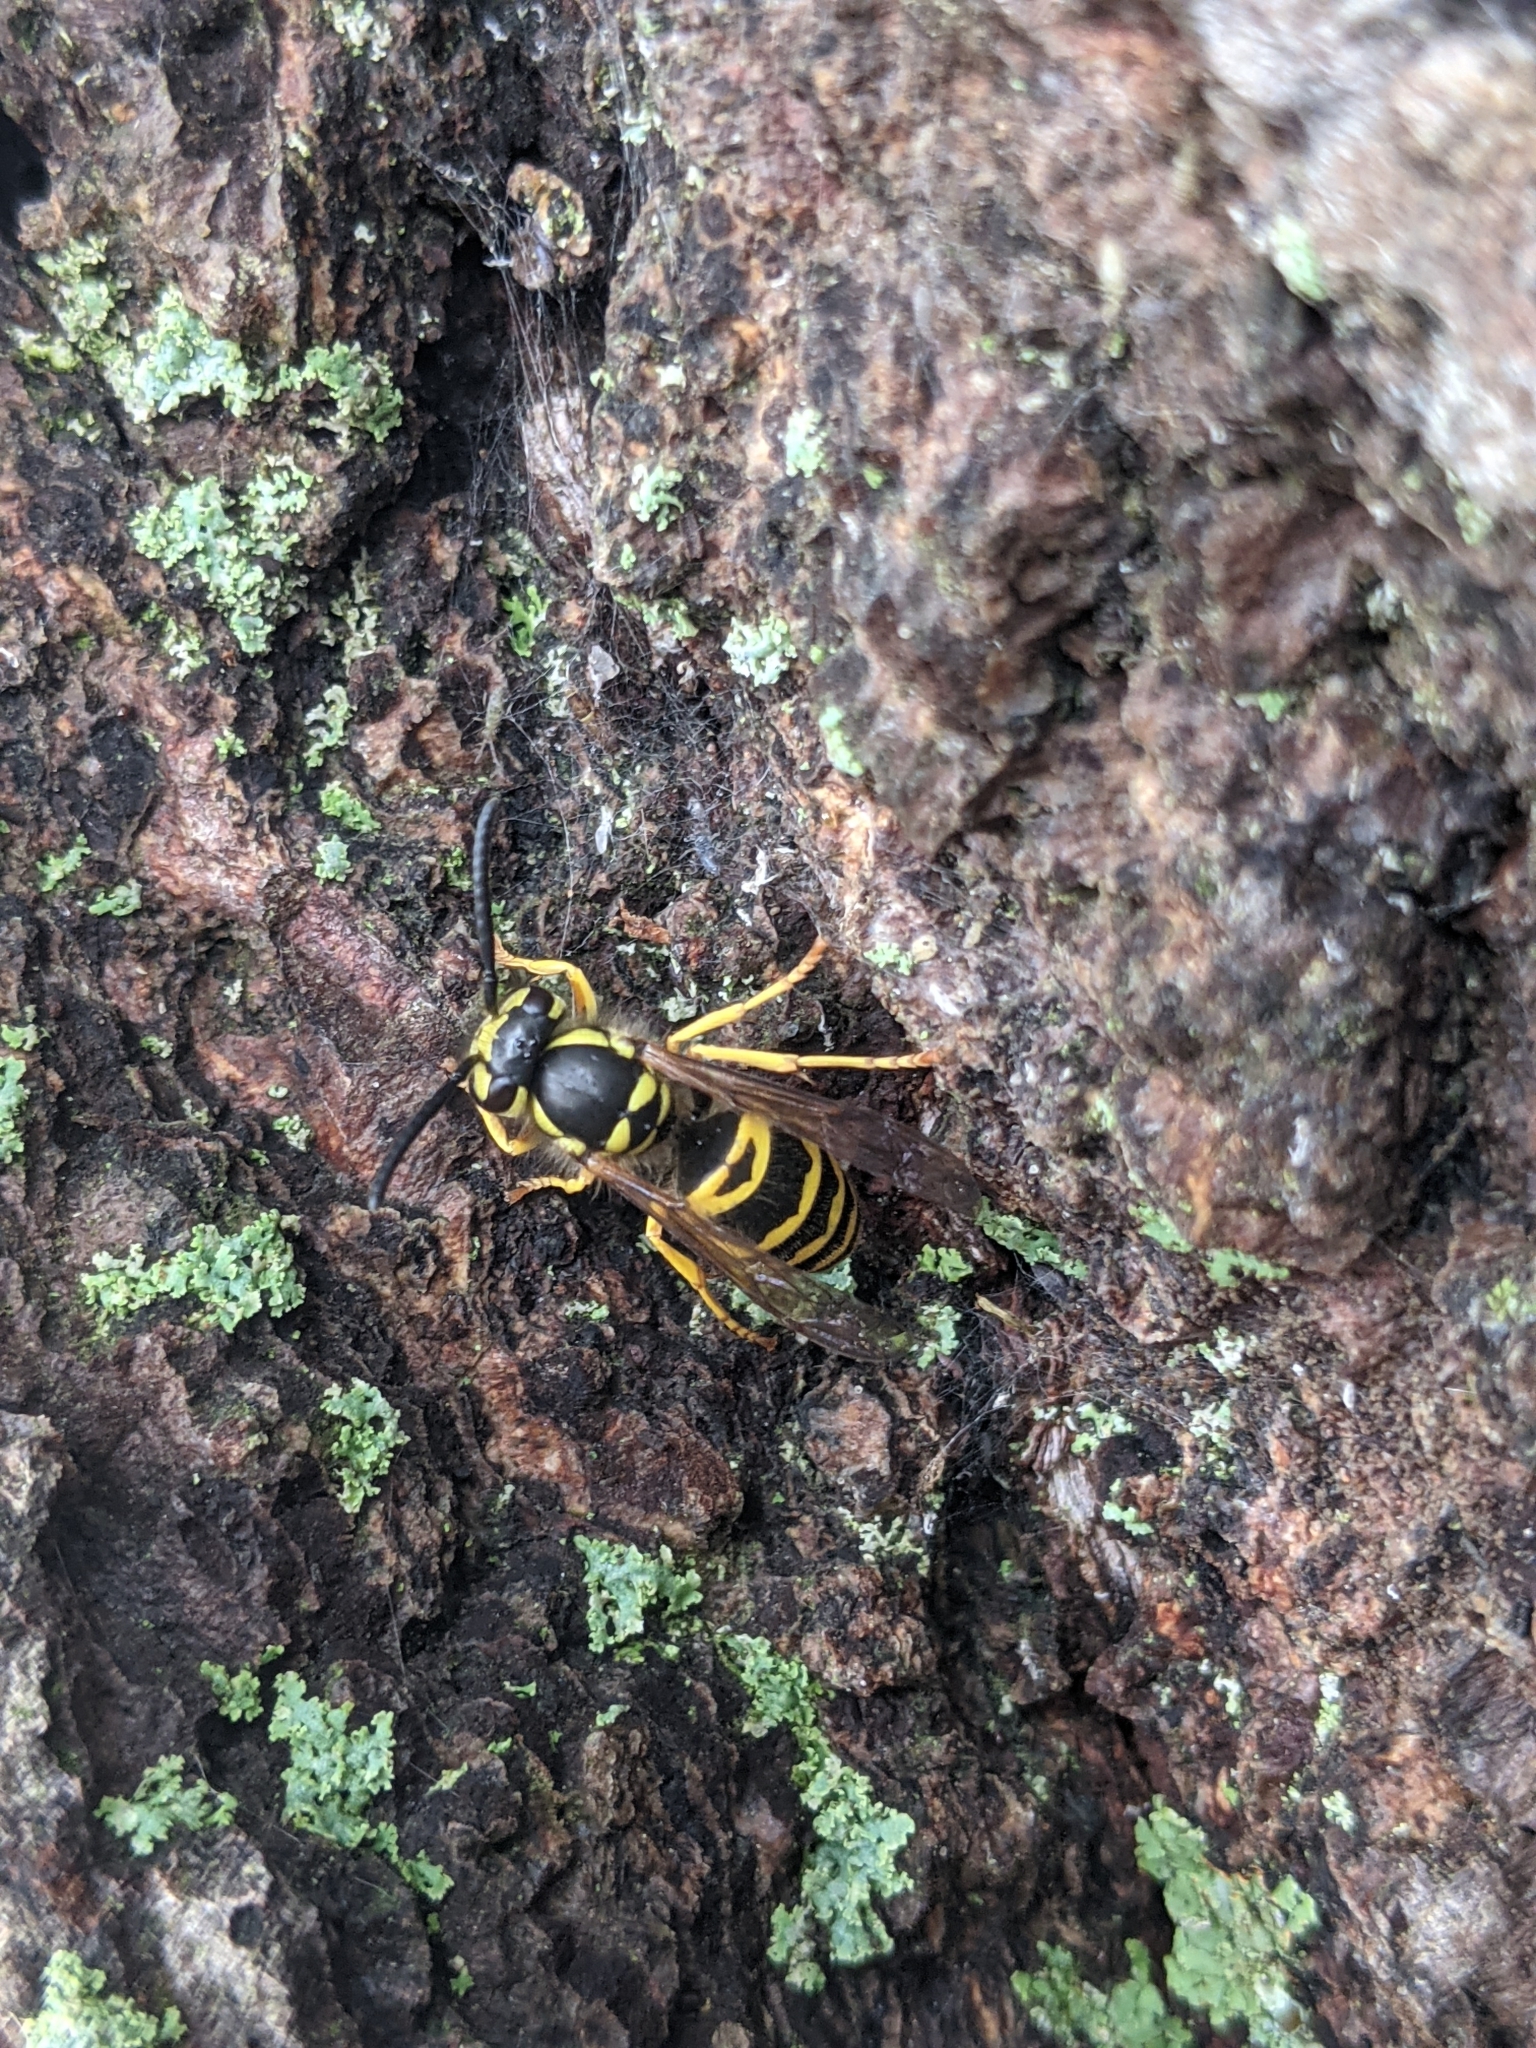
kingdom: Animalia
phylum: Arthropoda
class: Insecta
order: Hymenoptera
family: Vespidae
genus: Vespula
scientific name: Vespula maculifrons
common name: Eastern yellowjacket
